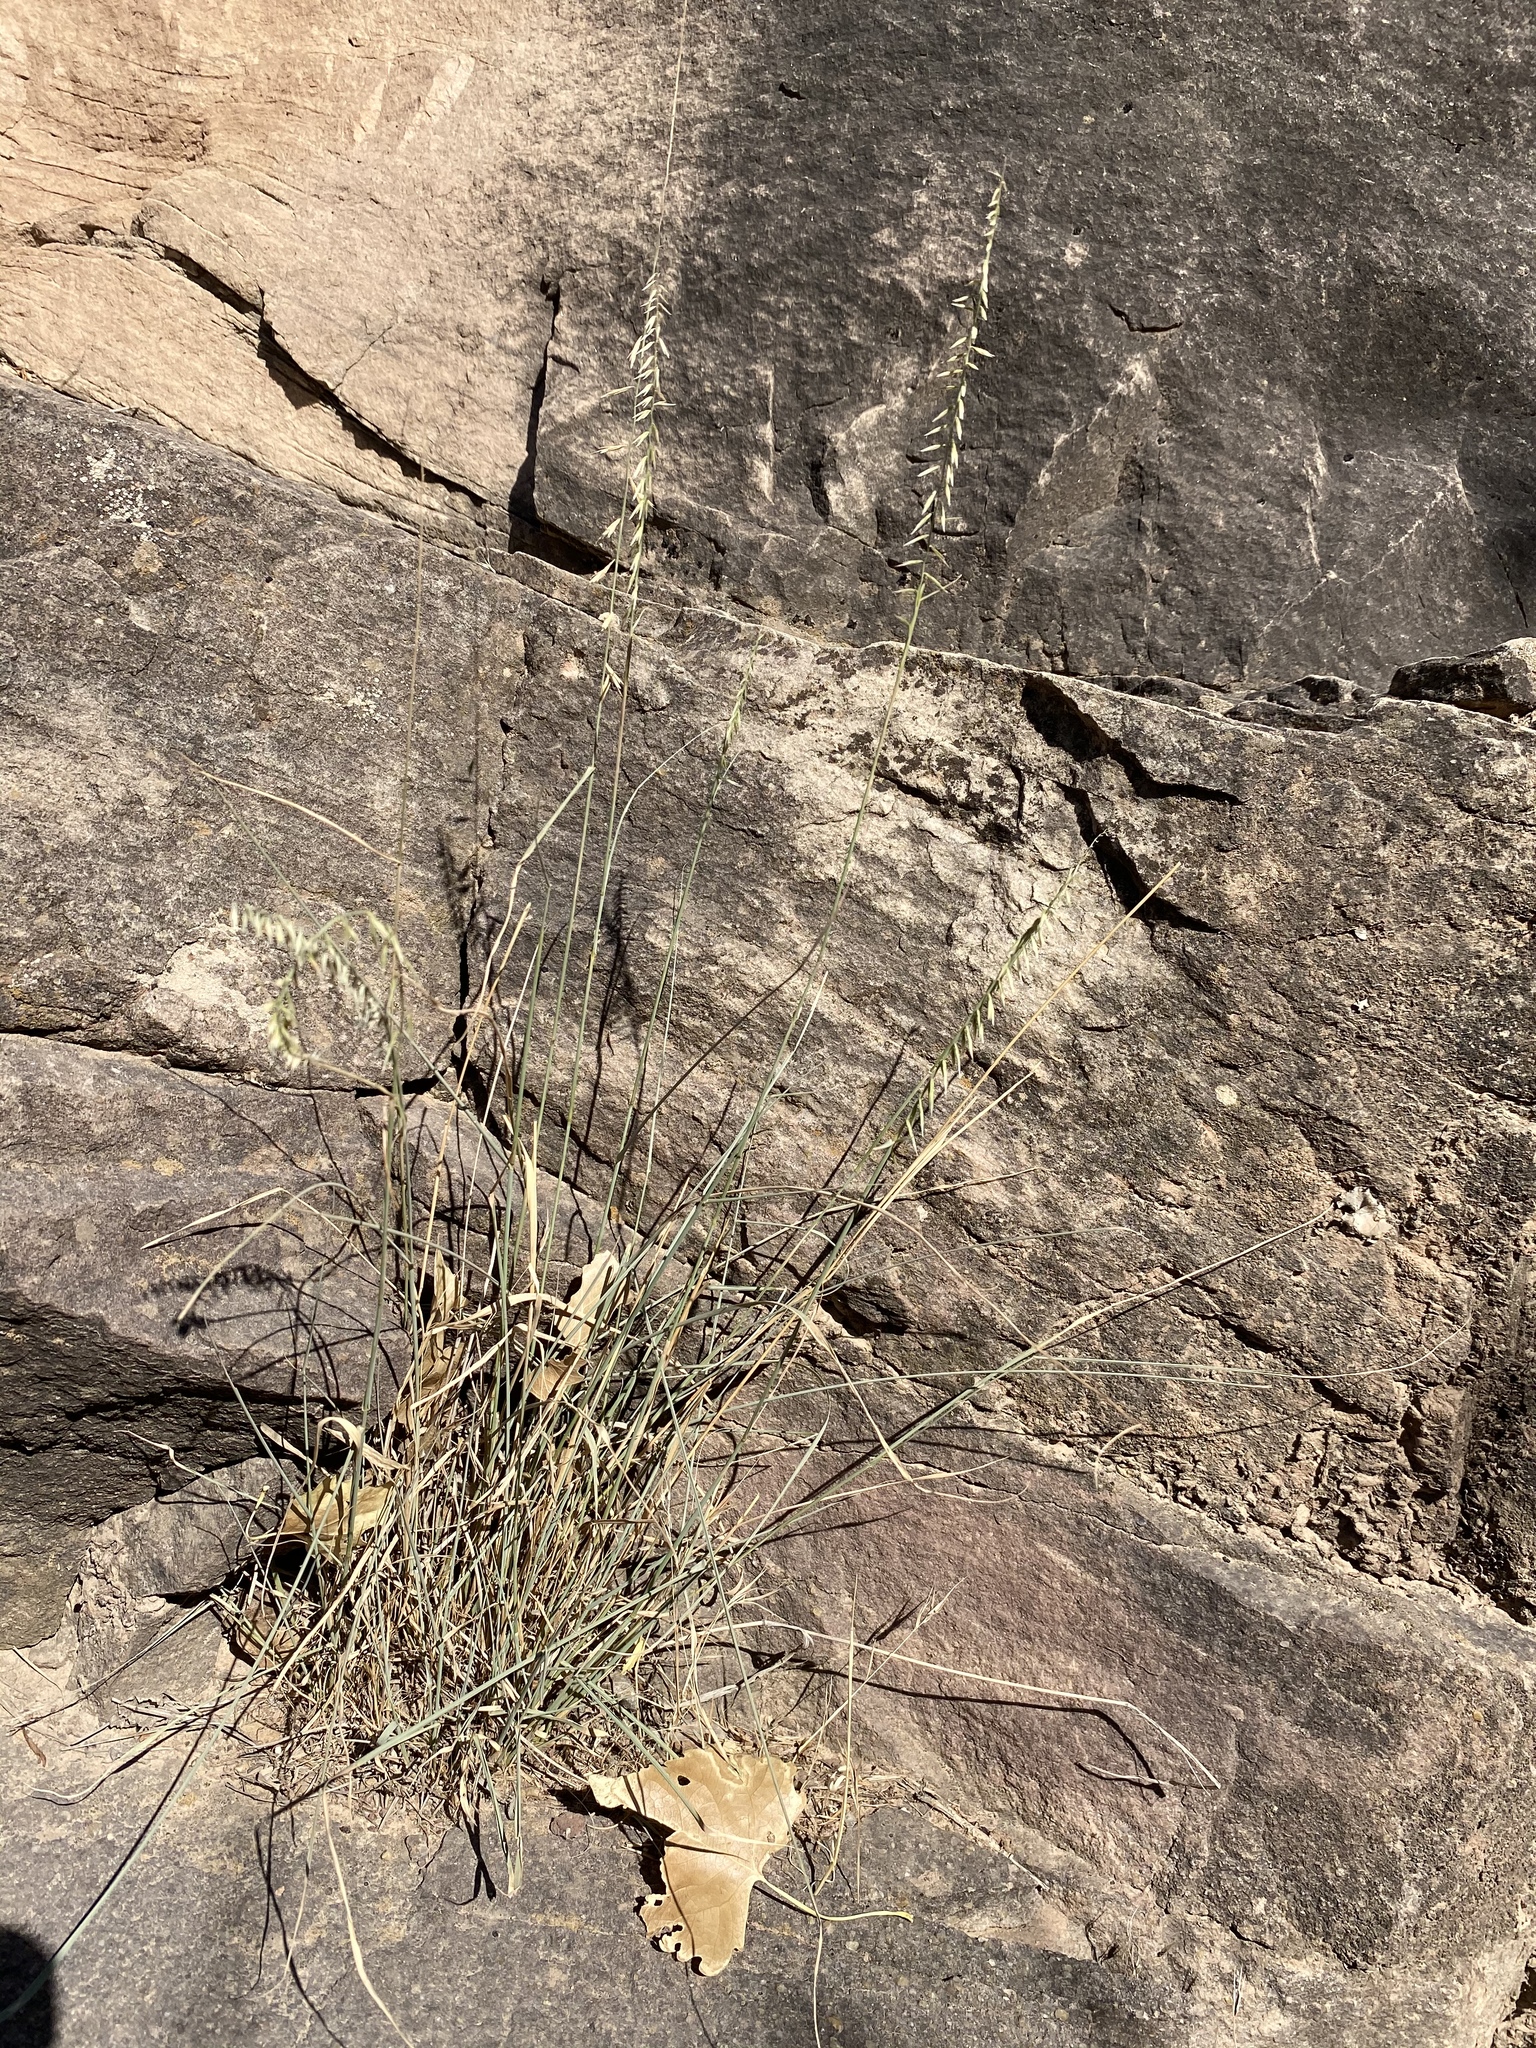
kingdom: Plantae
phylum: Tracheophyta
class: Liliopsida
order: Poales
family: Poaceae
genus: Bouteloua
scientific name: Bouteloua curtipendula
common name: Side-oats grama
